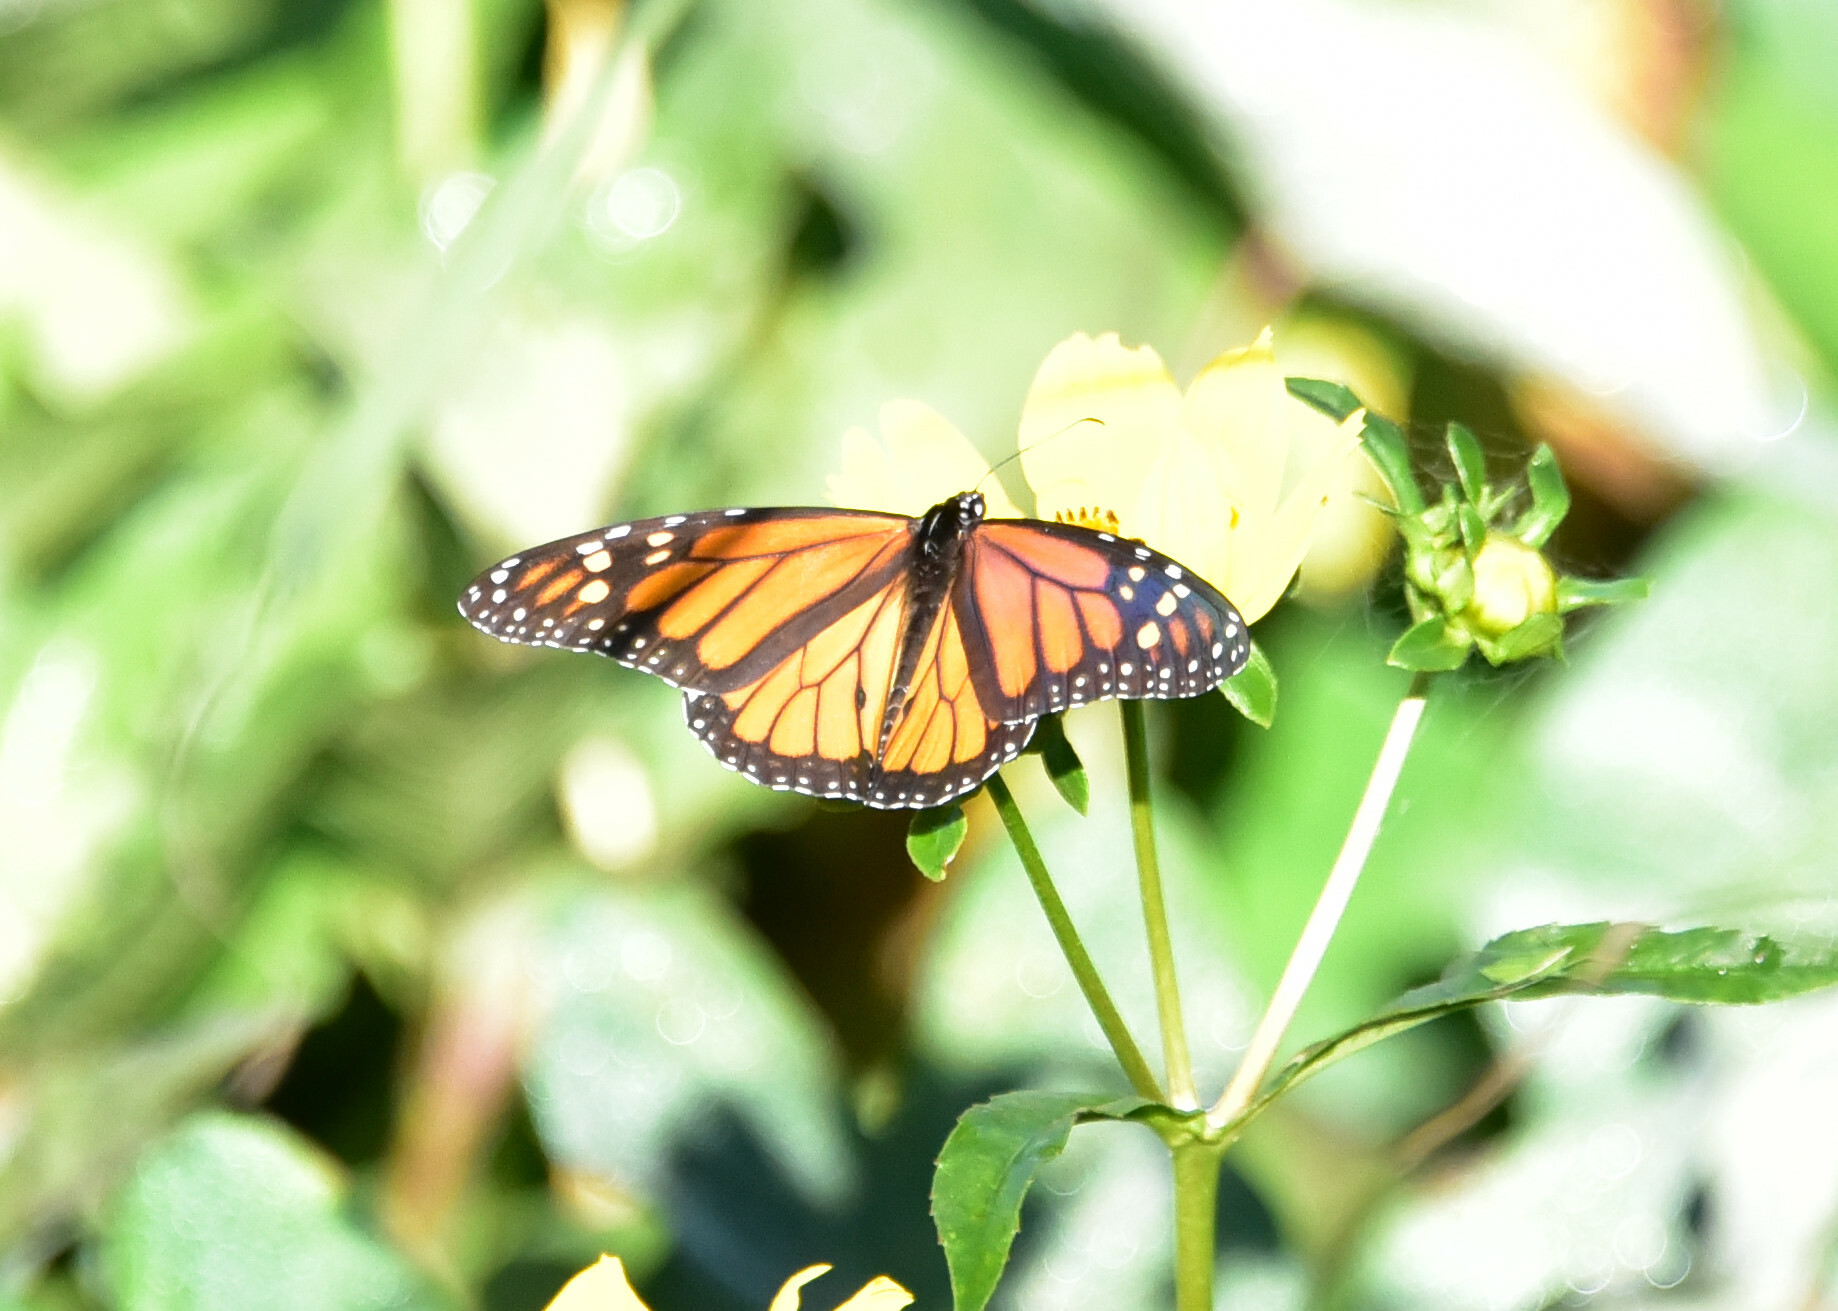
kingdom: Animalia
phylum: Arthropoda
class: Insecta
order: Lepidoptera
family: Nymphalidae
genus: Danaus
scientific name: Danaus plexippus
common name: Monarch
